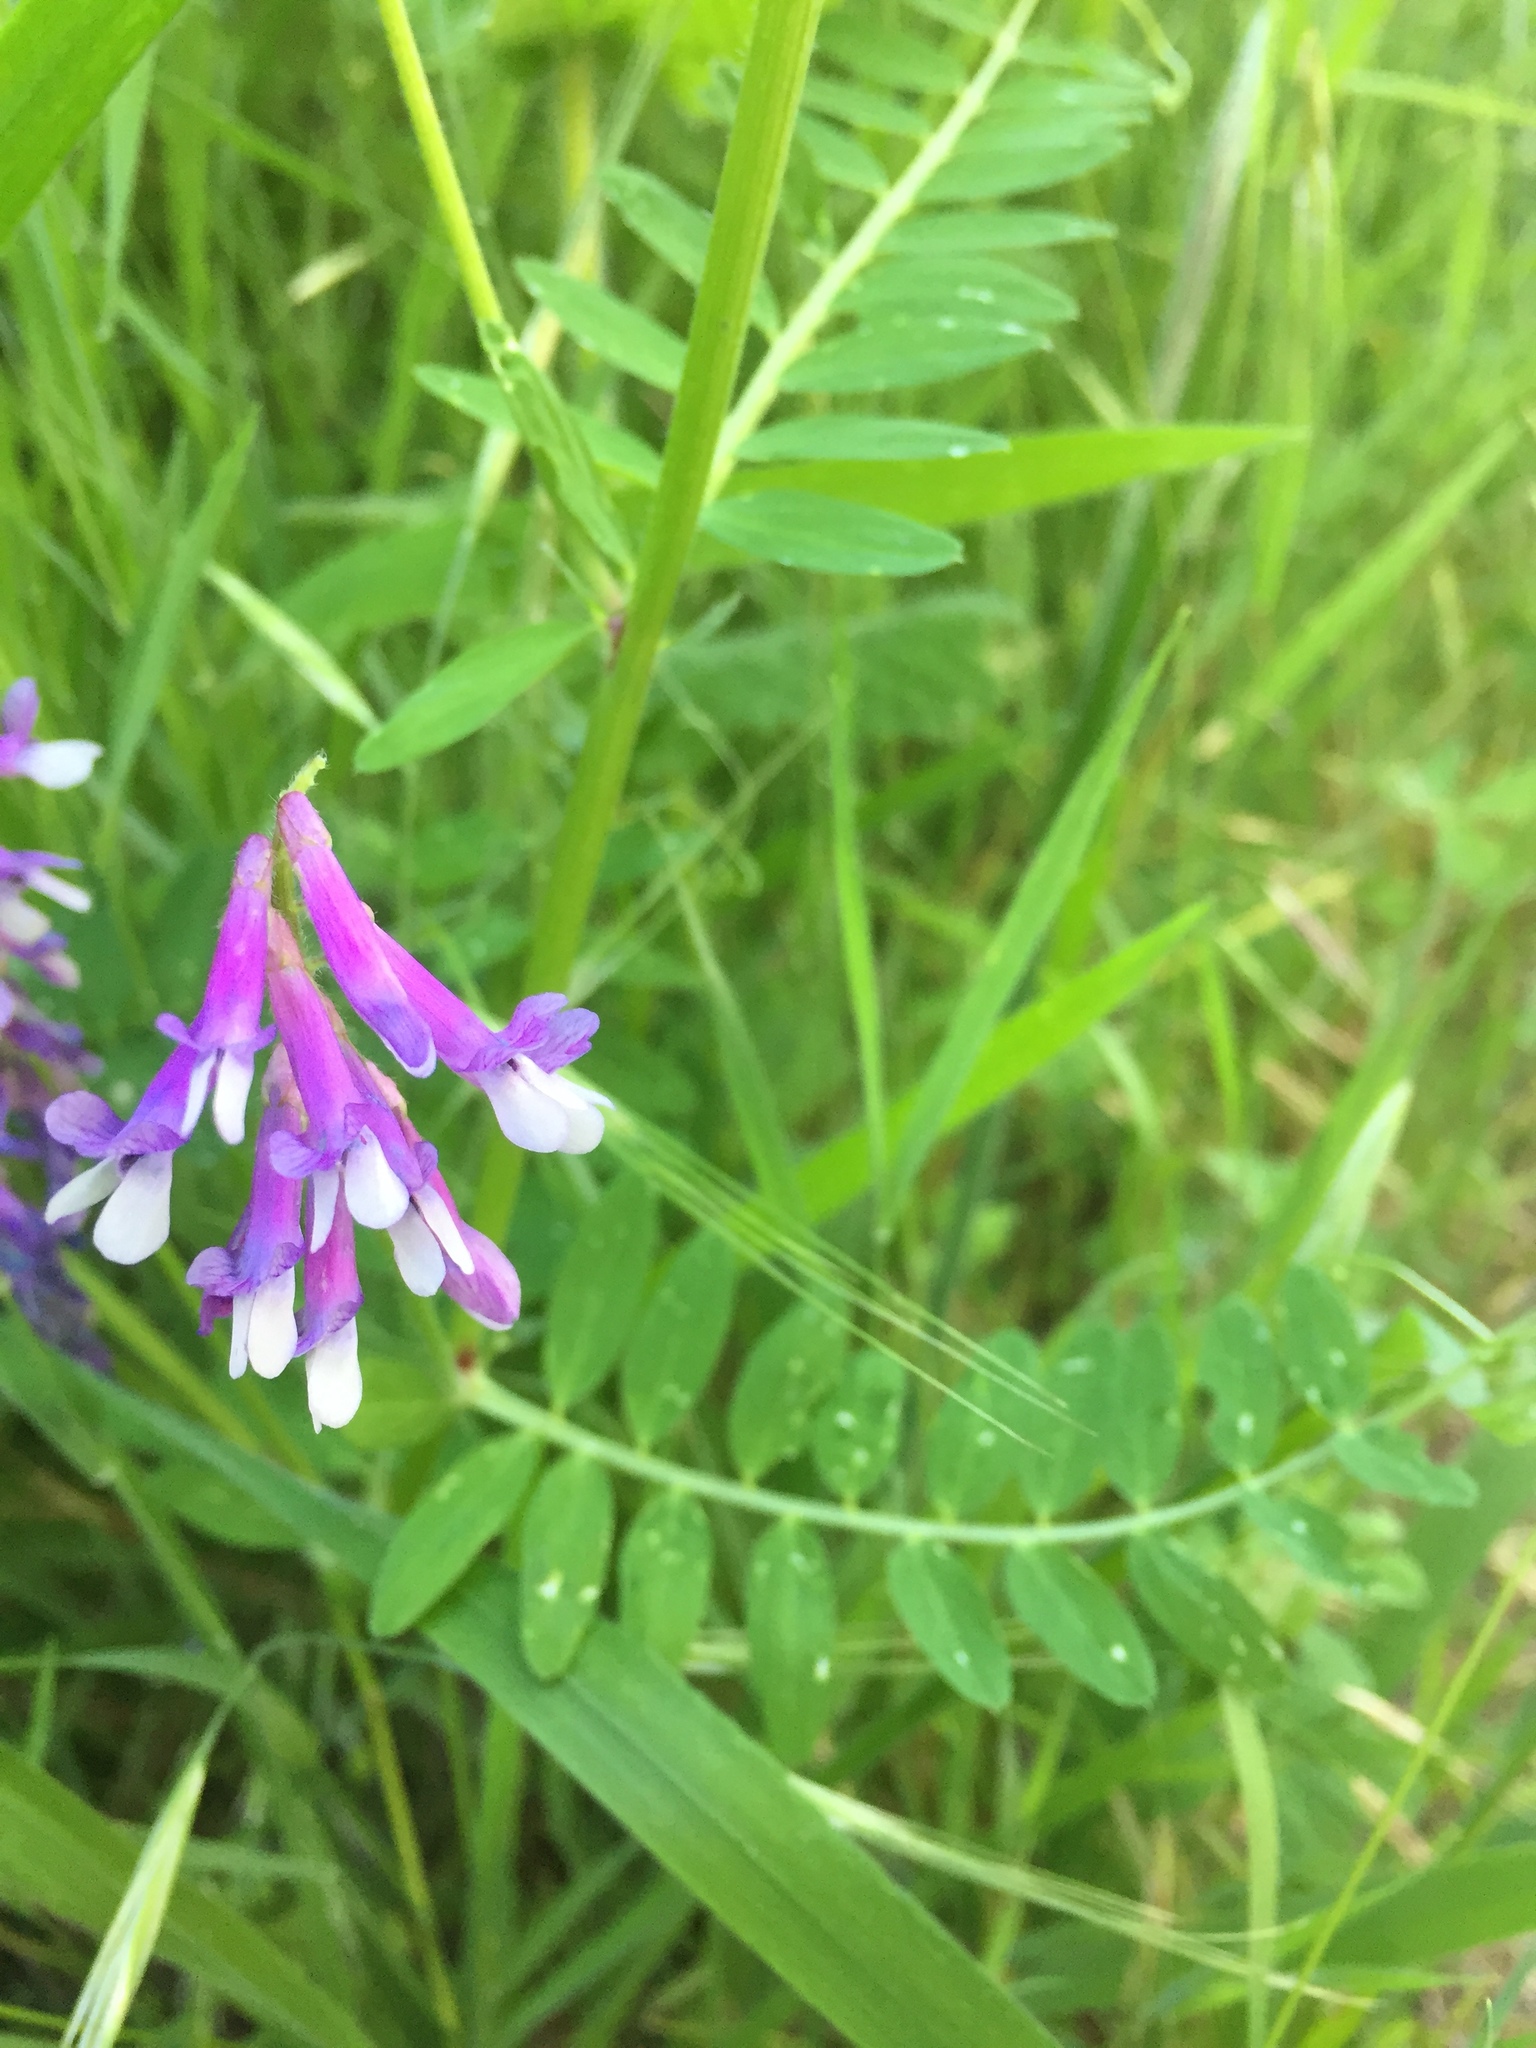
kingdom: Plantae
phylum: Tracheophyta
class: Magnoliopsida
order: Fabales
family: Fabaceae
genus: Vicia
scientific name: Vicia villosa
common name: Fodder vetch
